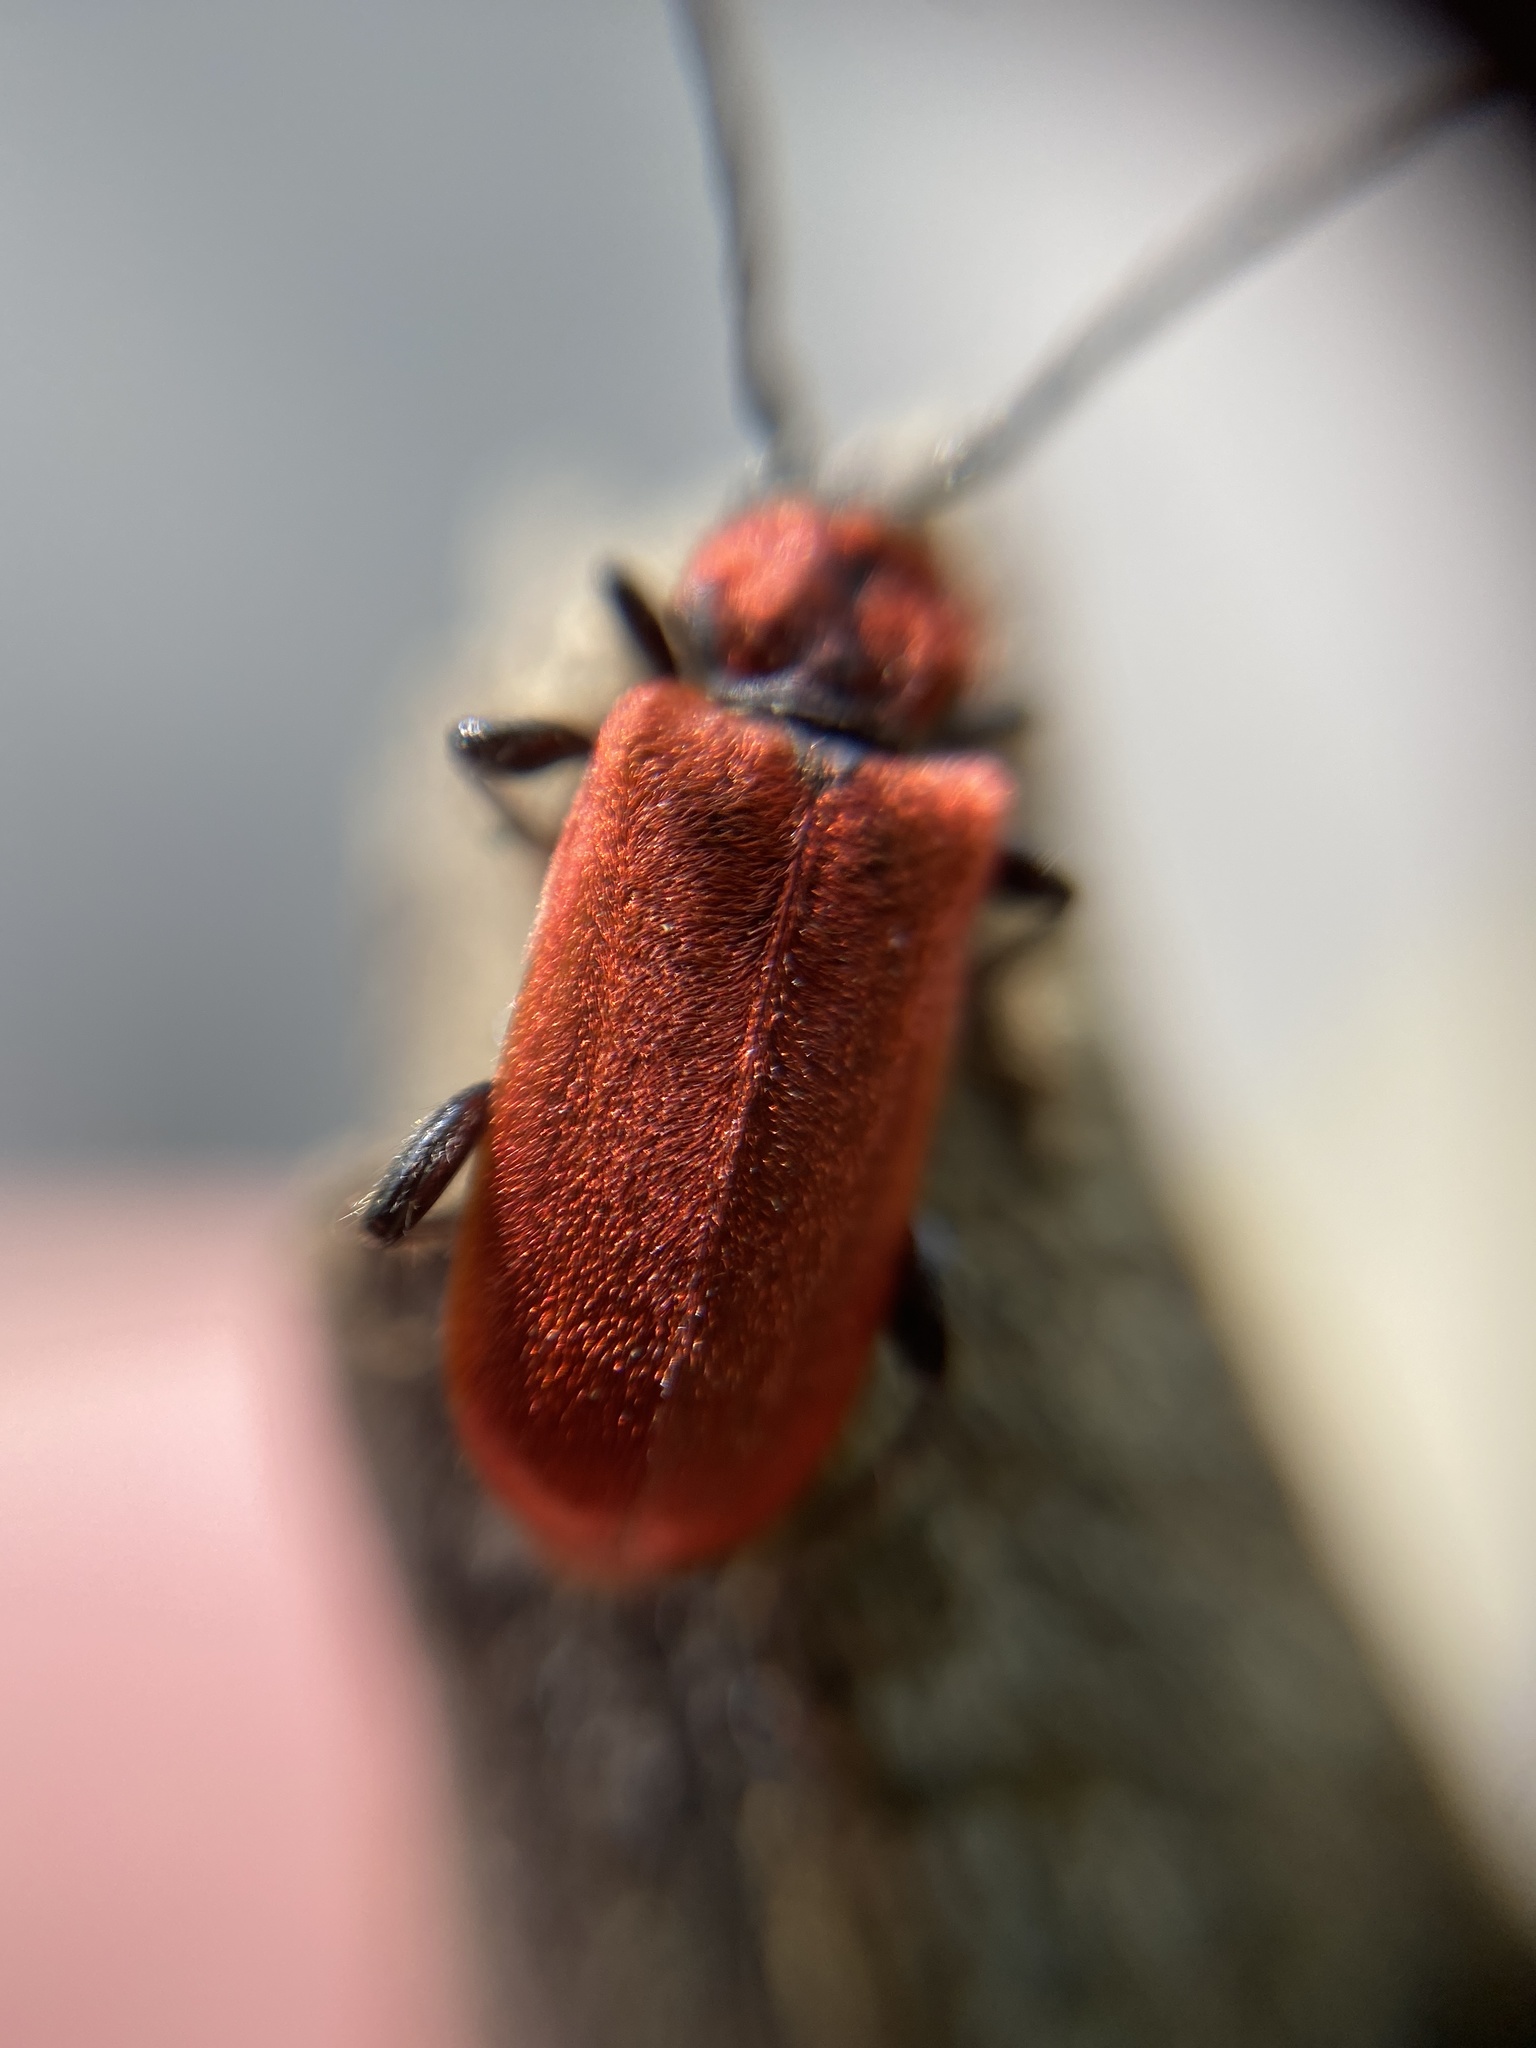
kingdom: Animalia
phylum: Arthropoda
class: Insecta
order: Coleoptera
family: Cerambycidae
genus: Pyrrhidium
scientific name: Pyrrhidium sanguineum
